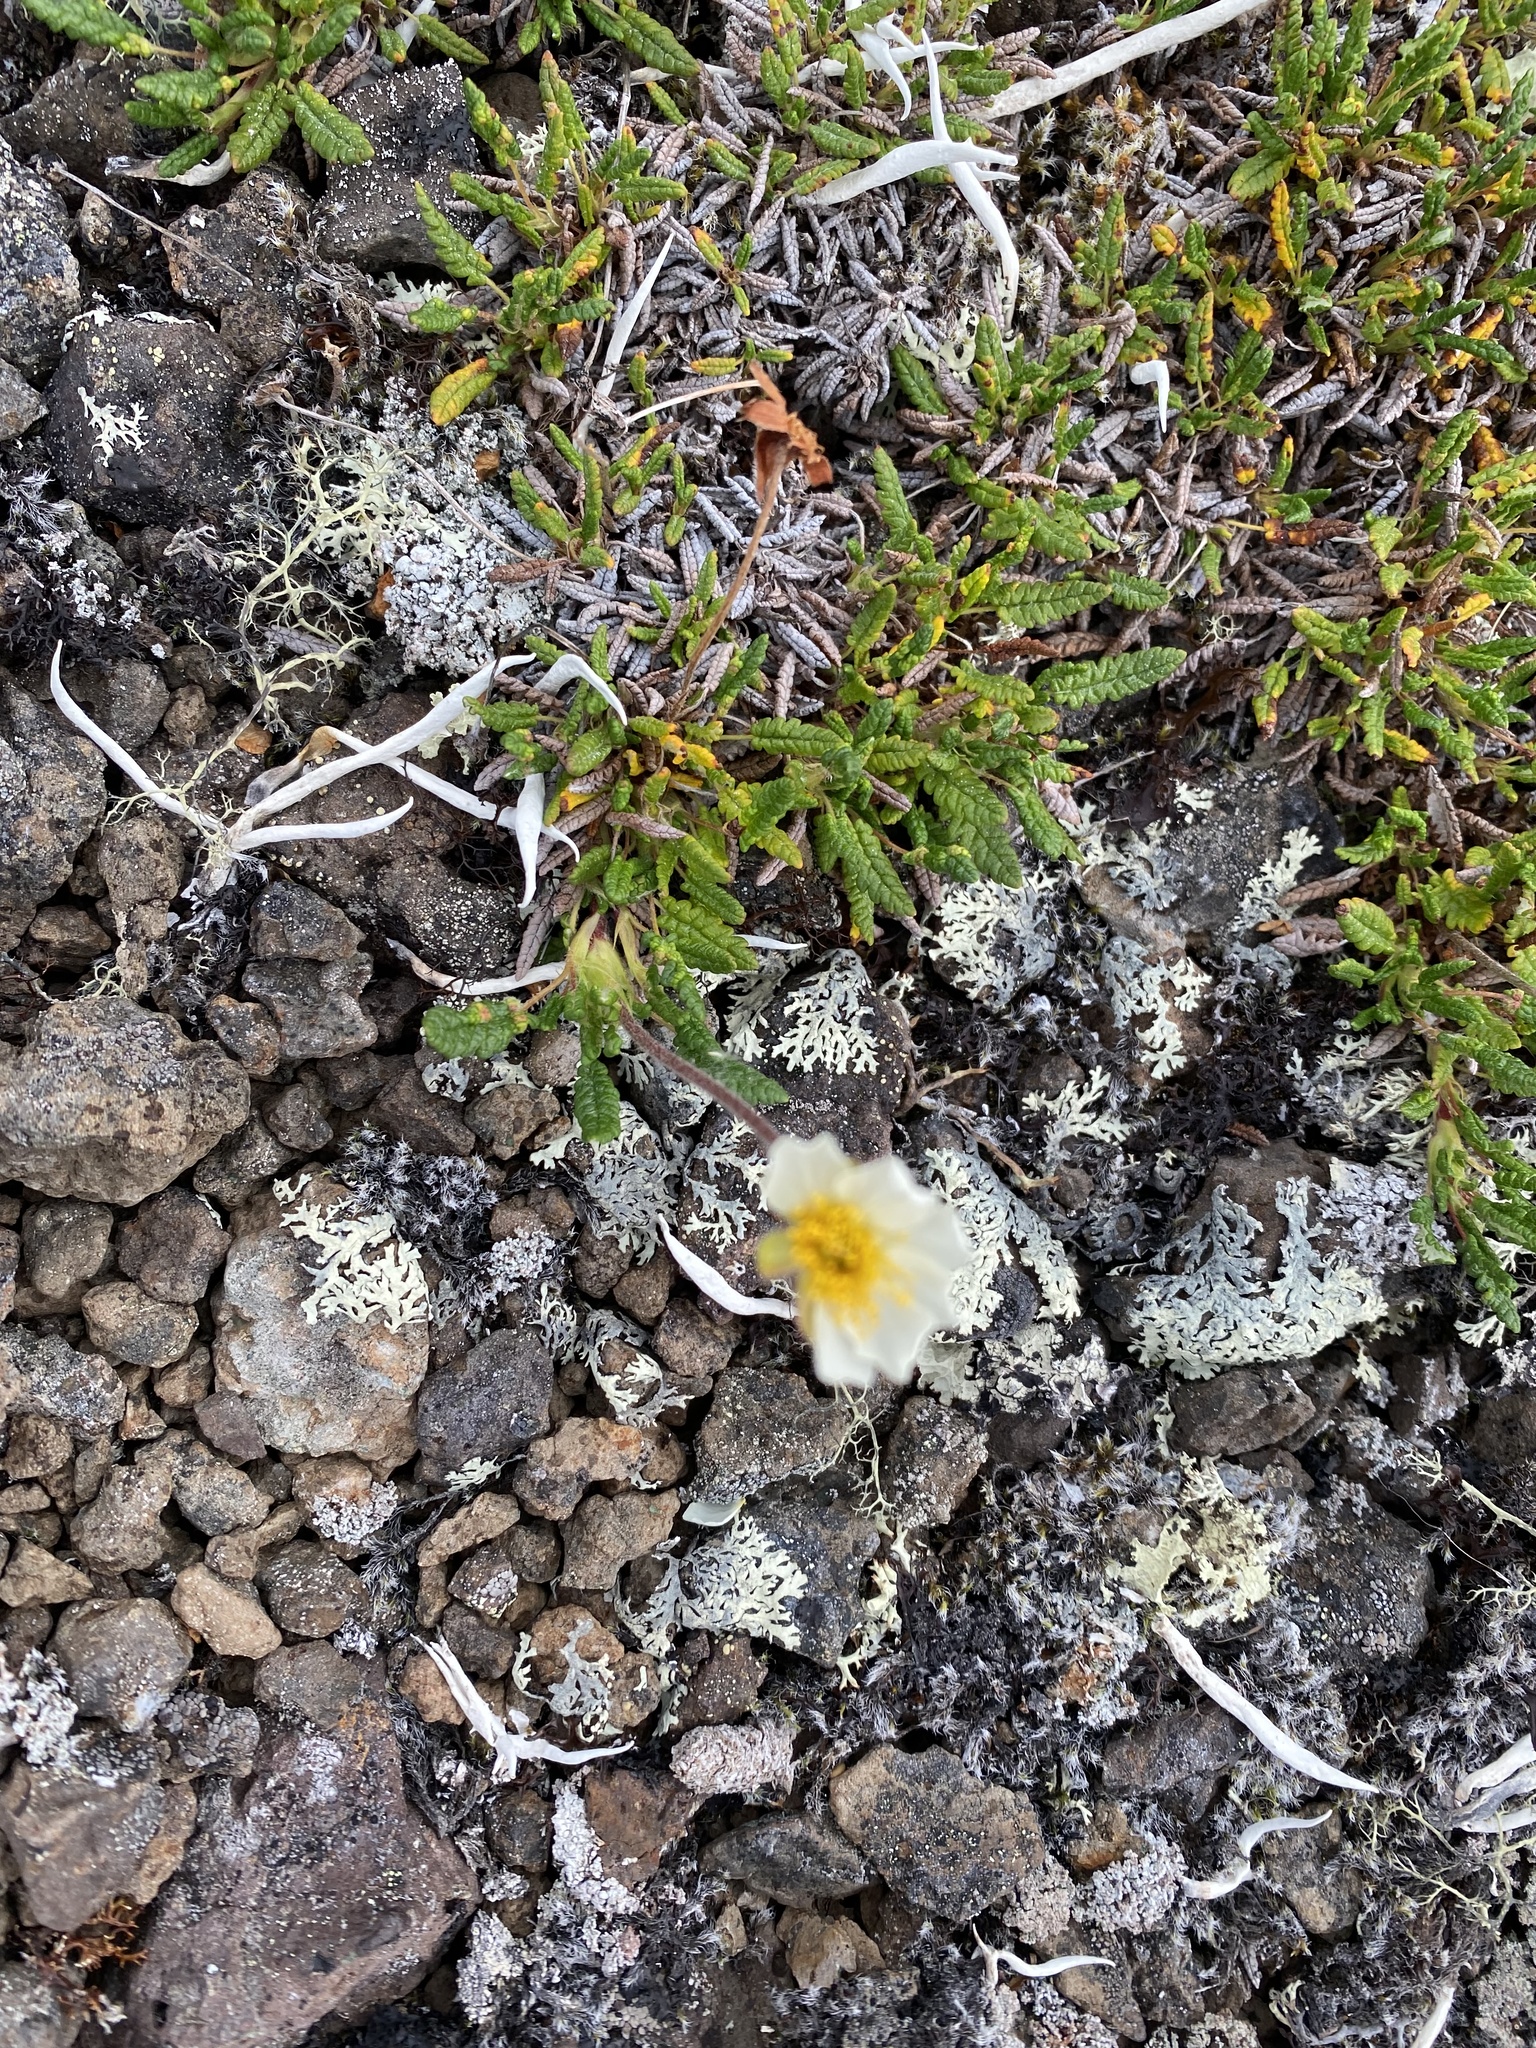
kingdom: Plantae
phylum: Tracheophyta
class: Magnoliopsida
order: Rosales
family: Rosaceae
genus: Dryas
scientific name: Dryas octopetala
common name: Eight-petal mountain-avens
